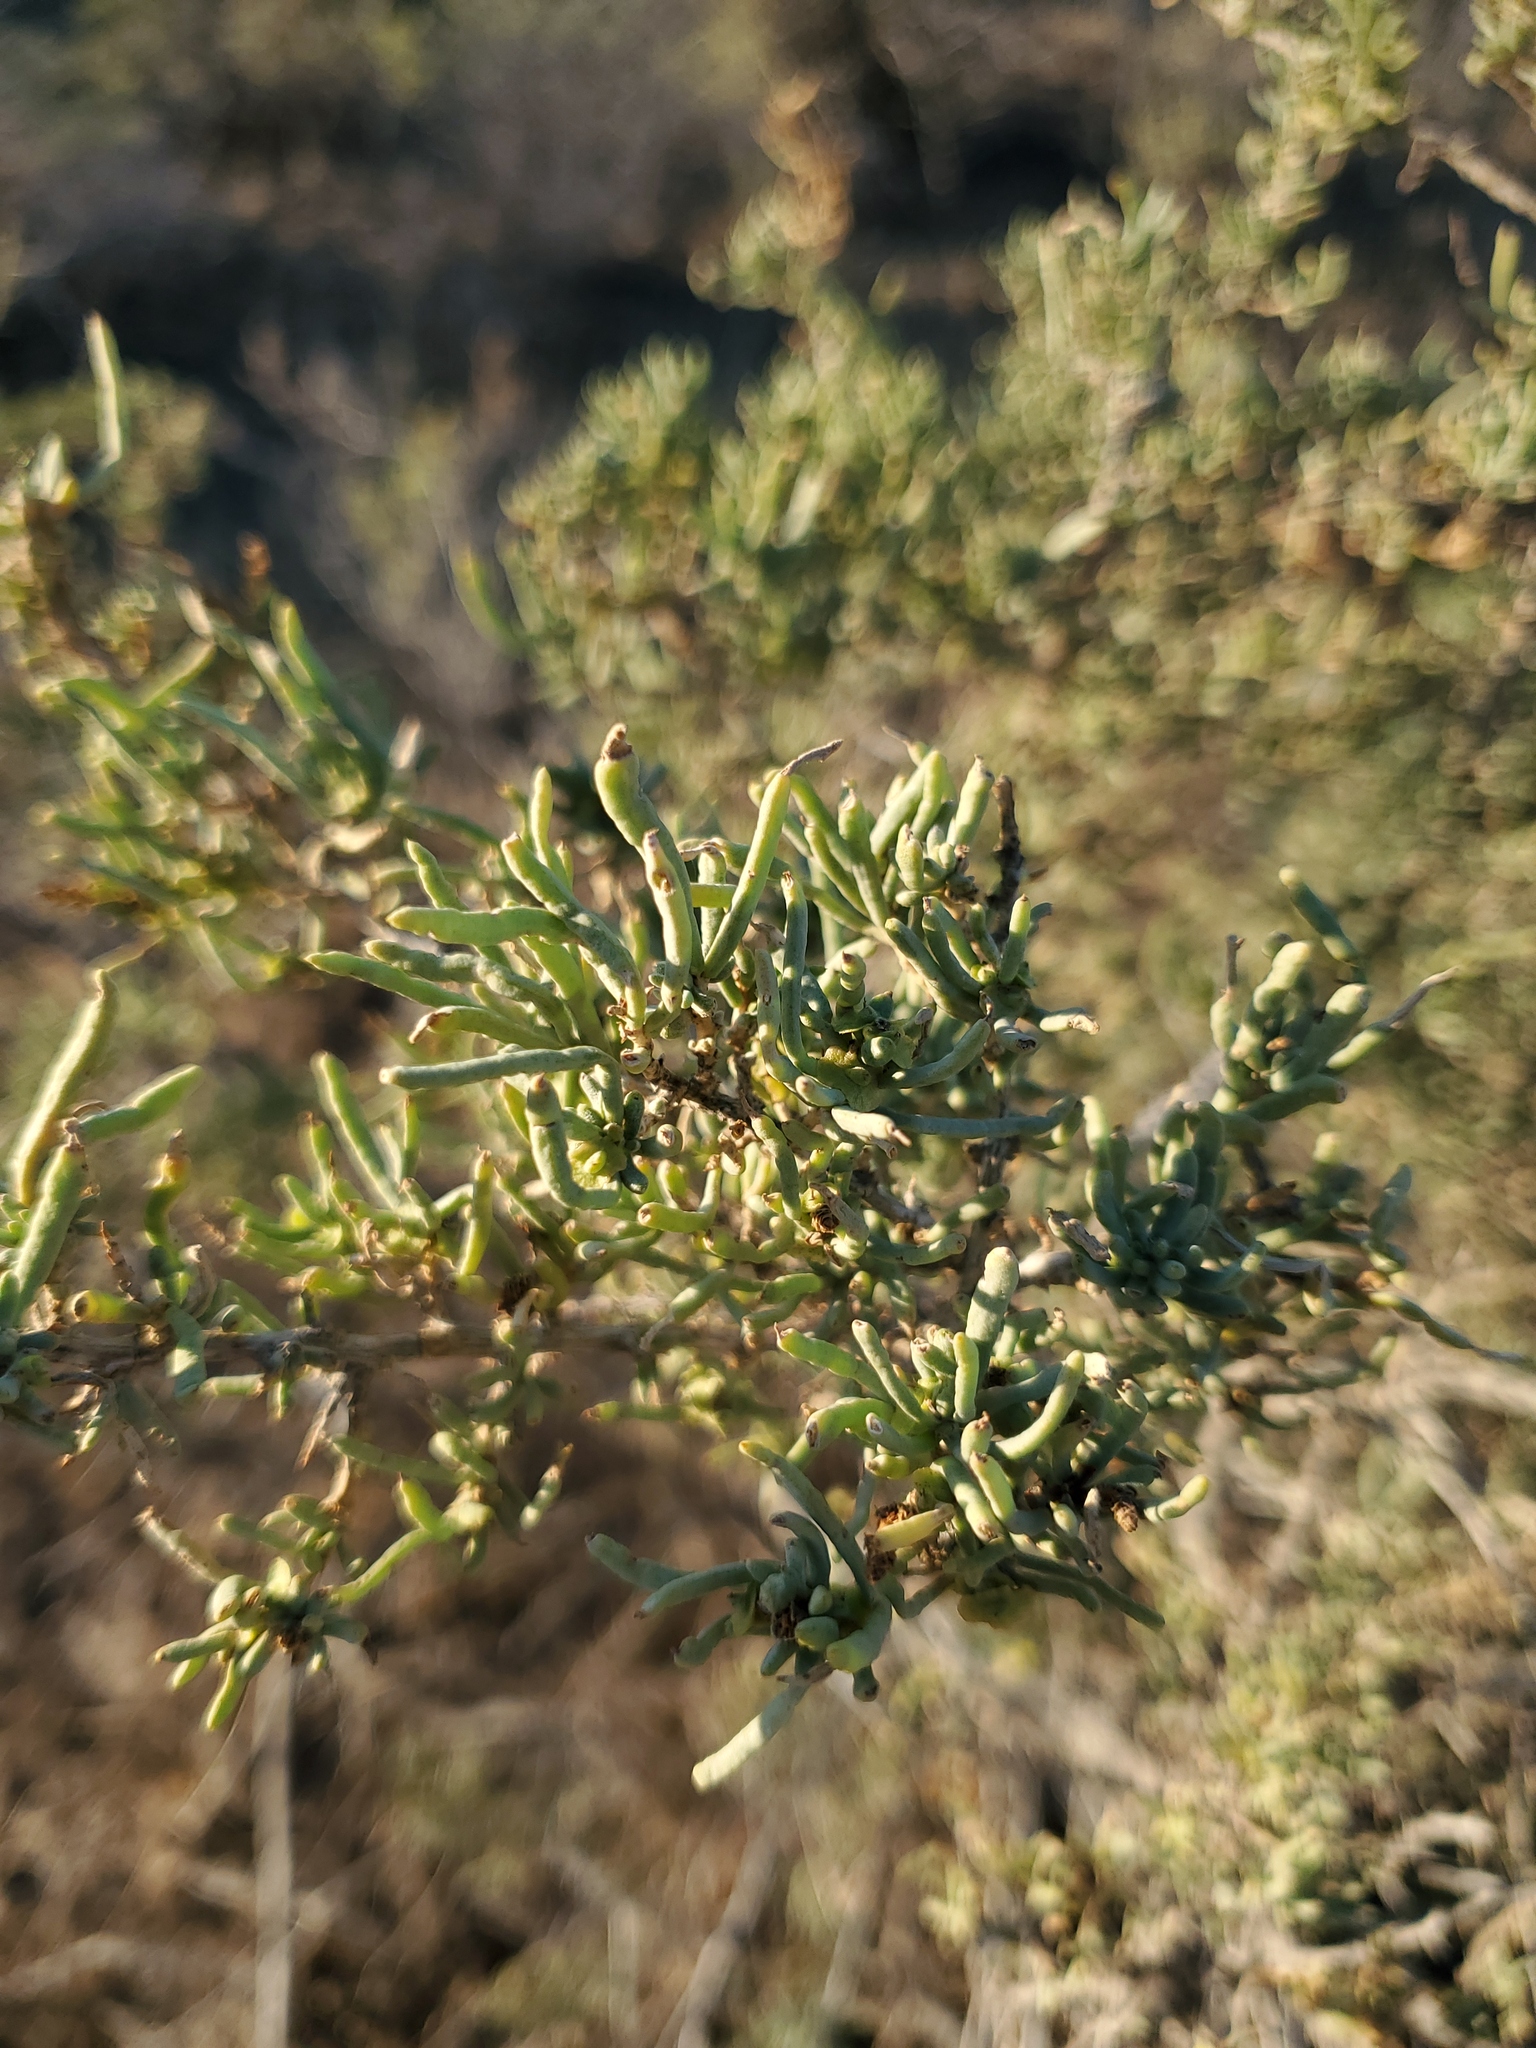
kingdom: Plantae
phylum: Tracheophyta
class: Magnoliopsida
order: Caryophyllales
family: Sarcobataceae
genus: Sarcobatus
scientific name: Sarcobatus vermiculatus
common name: Greasewood
